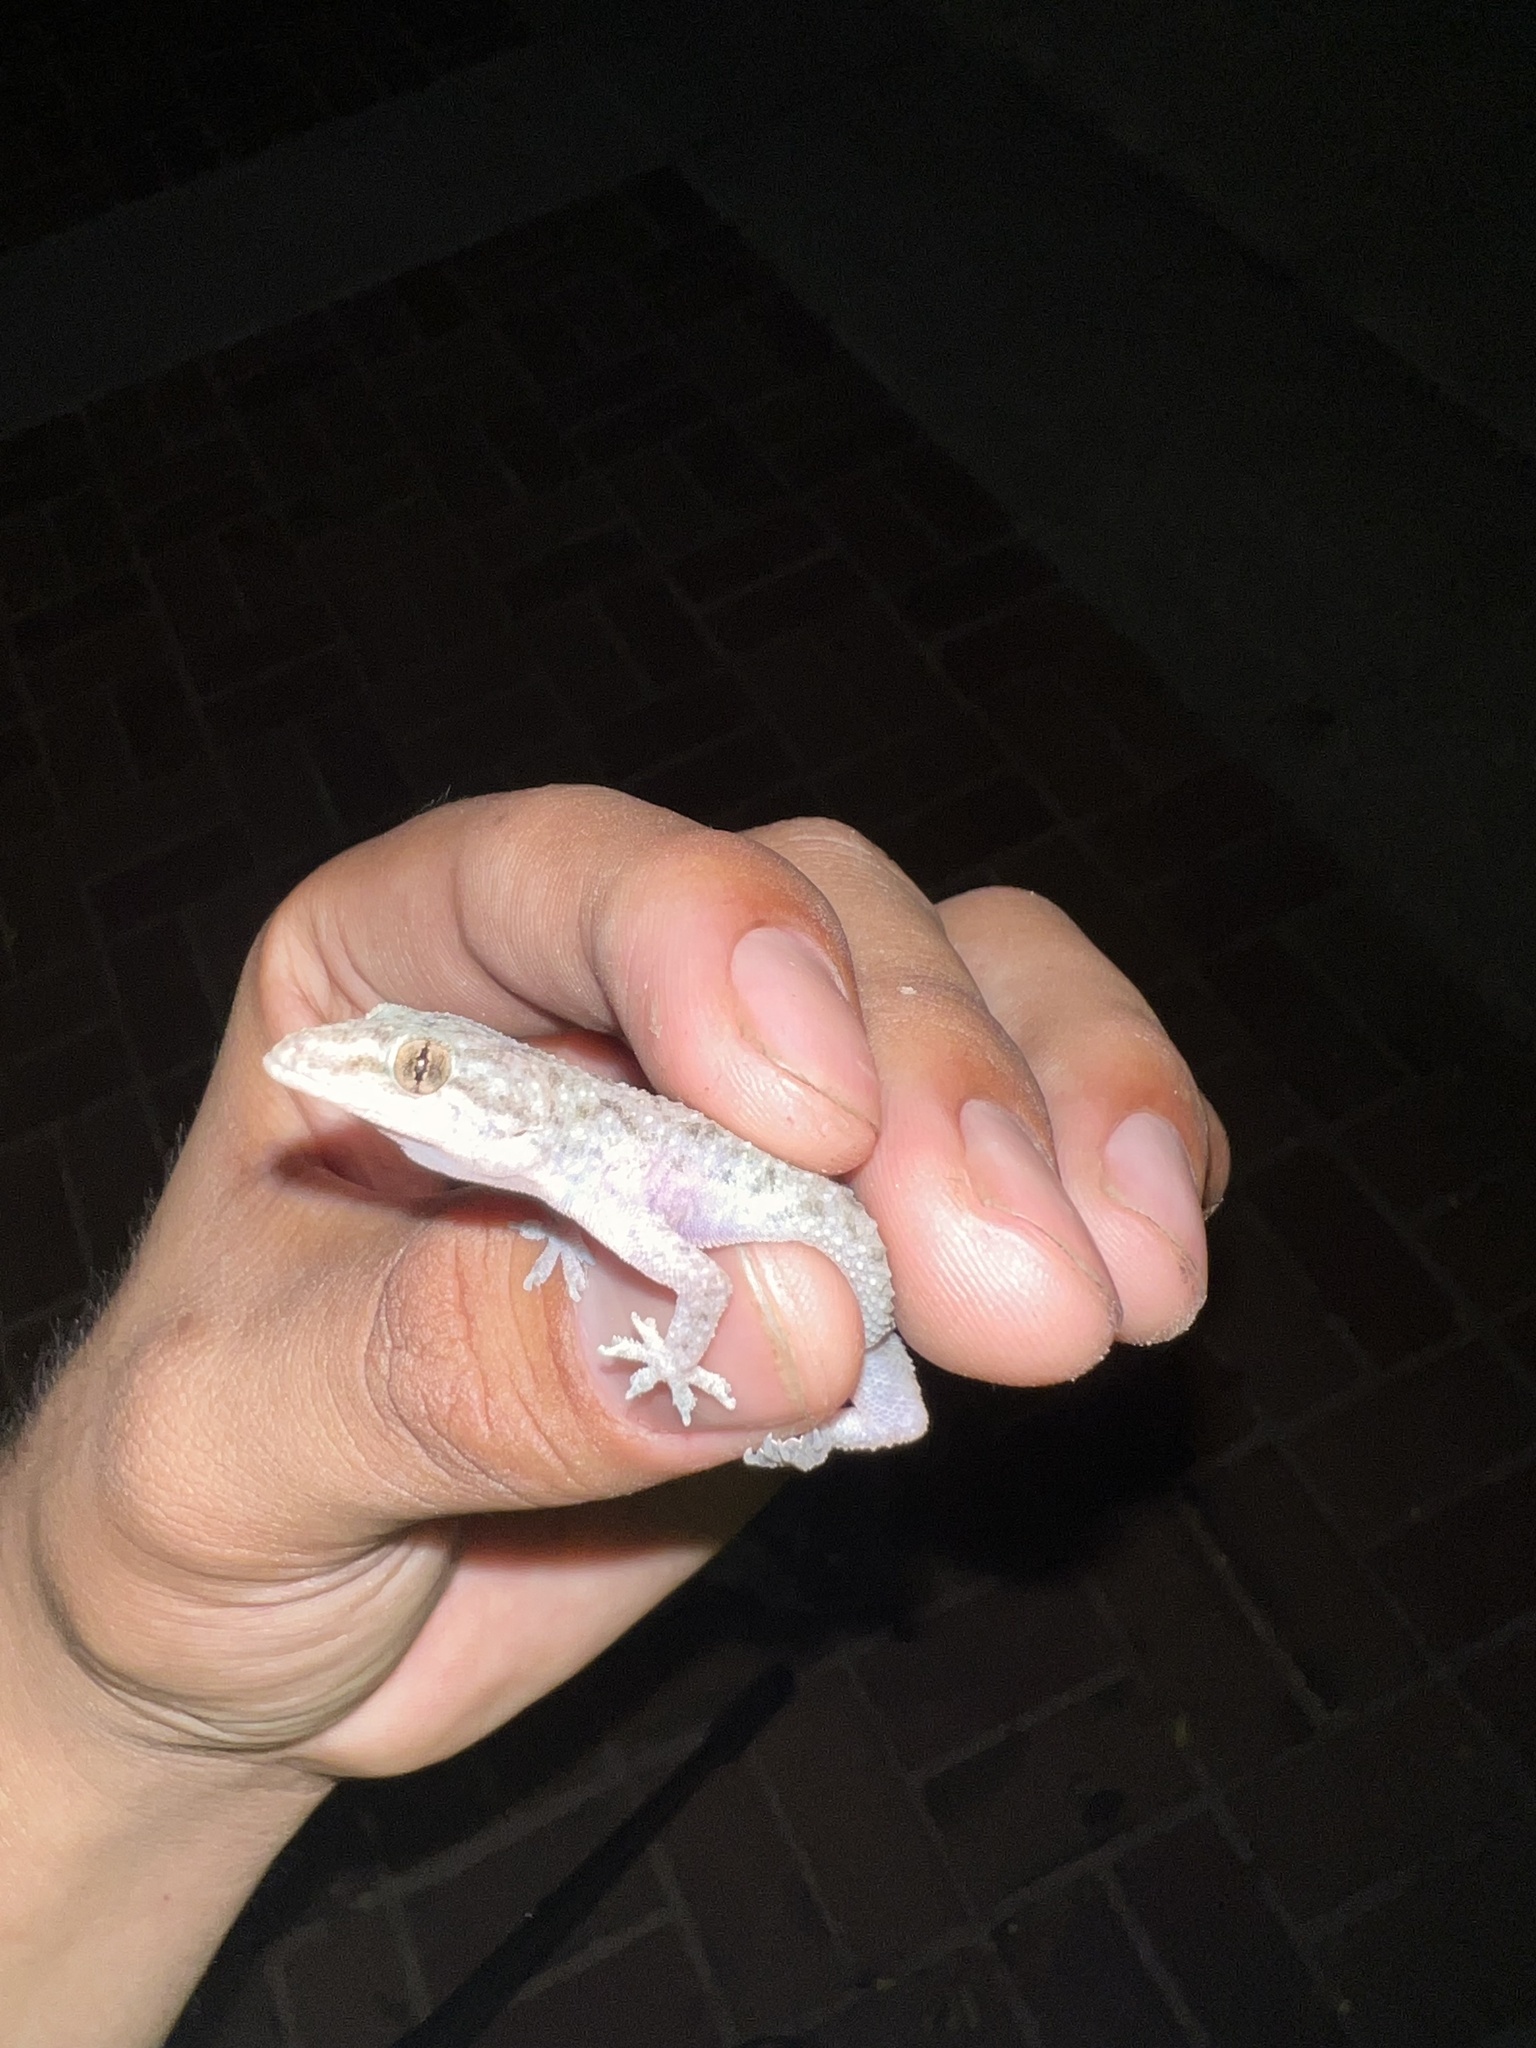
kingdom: Animalia
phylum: Chordata
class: Squamata
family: Gekkonidae
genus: Hemidactylus
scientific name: Hemidactylus parvimaculatus
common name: Spotted house gecko
